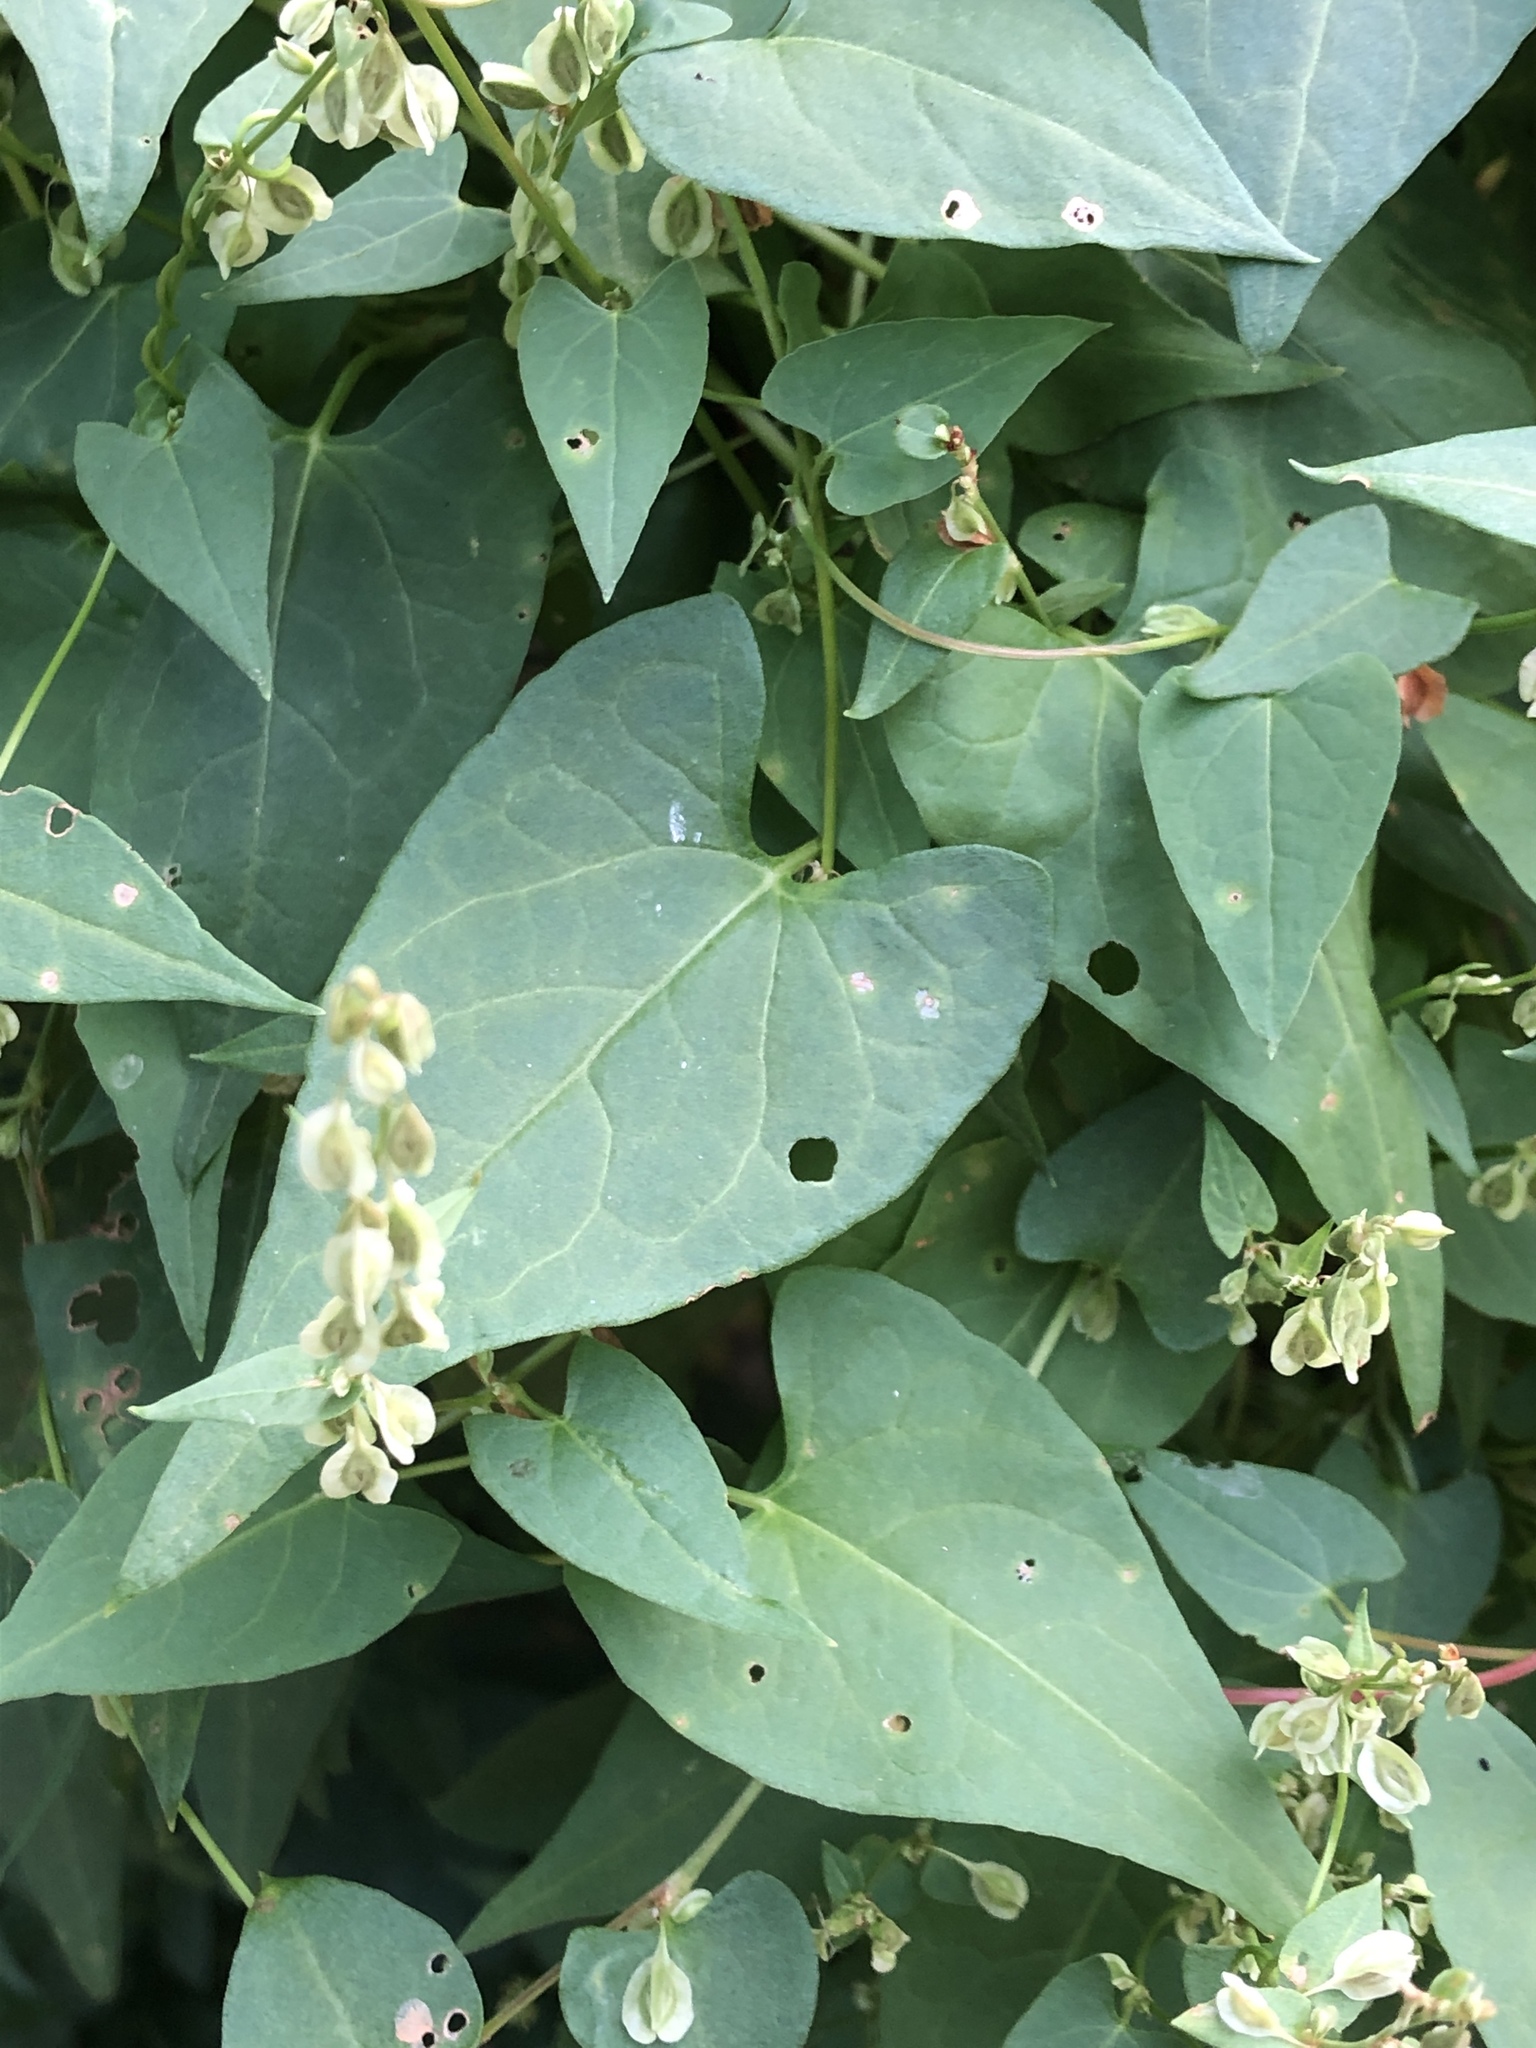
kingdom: Plantae
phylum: Tracheophyta
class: Magnoliopsida
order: Caryophyllales
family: Polygonaceae
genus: Fallopia
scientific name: Fallopia dumetorum
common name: Copse-bindweed
